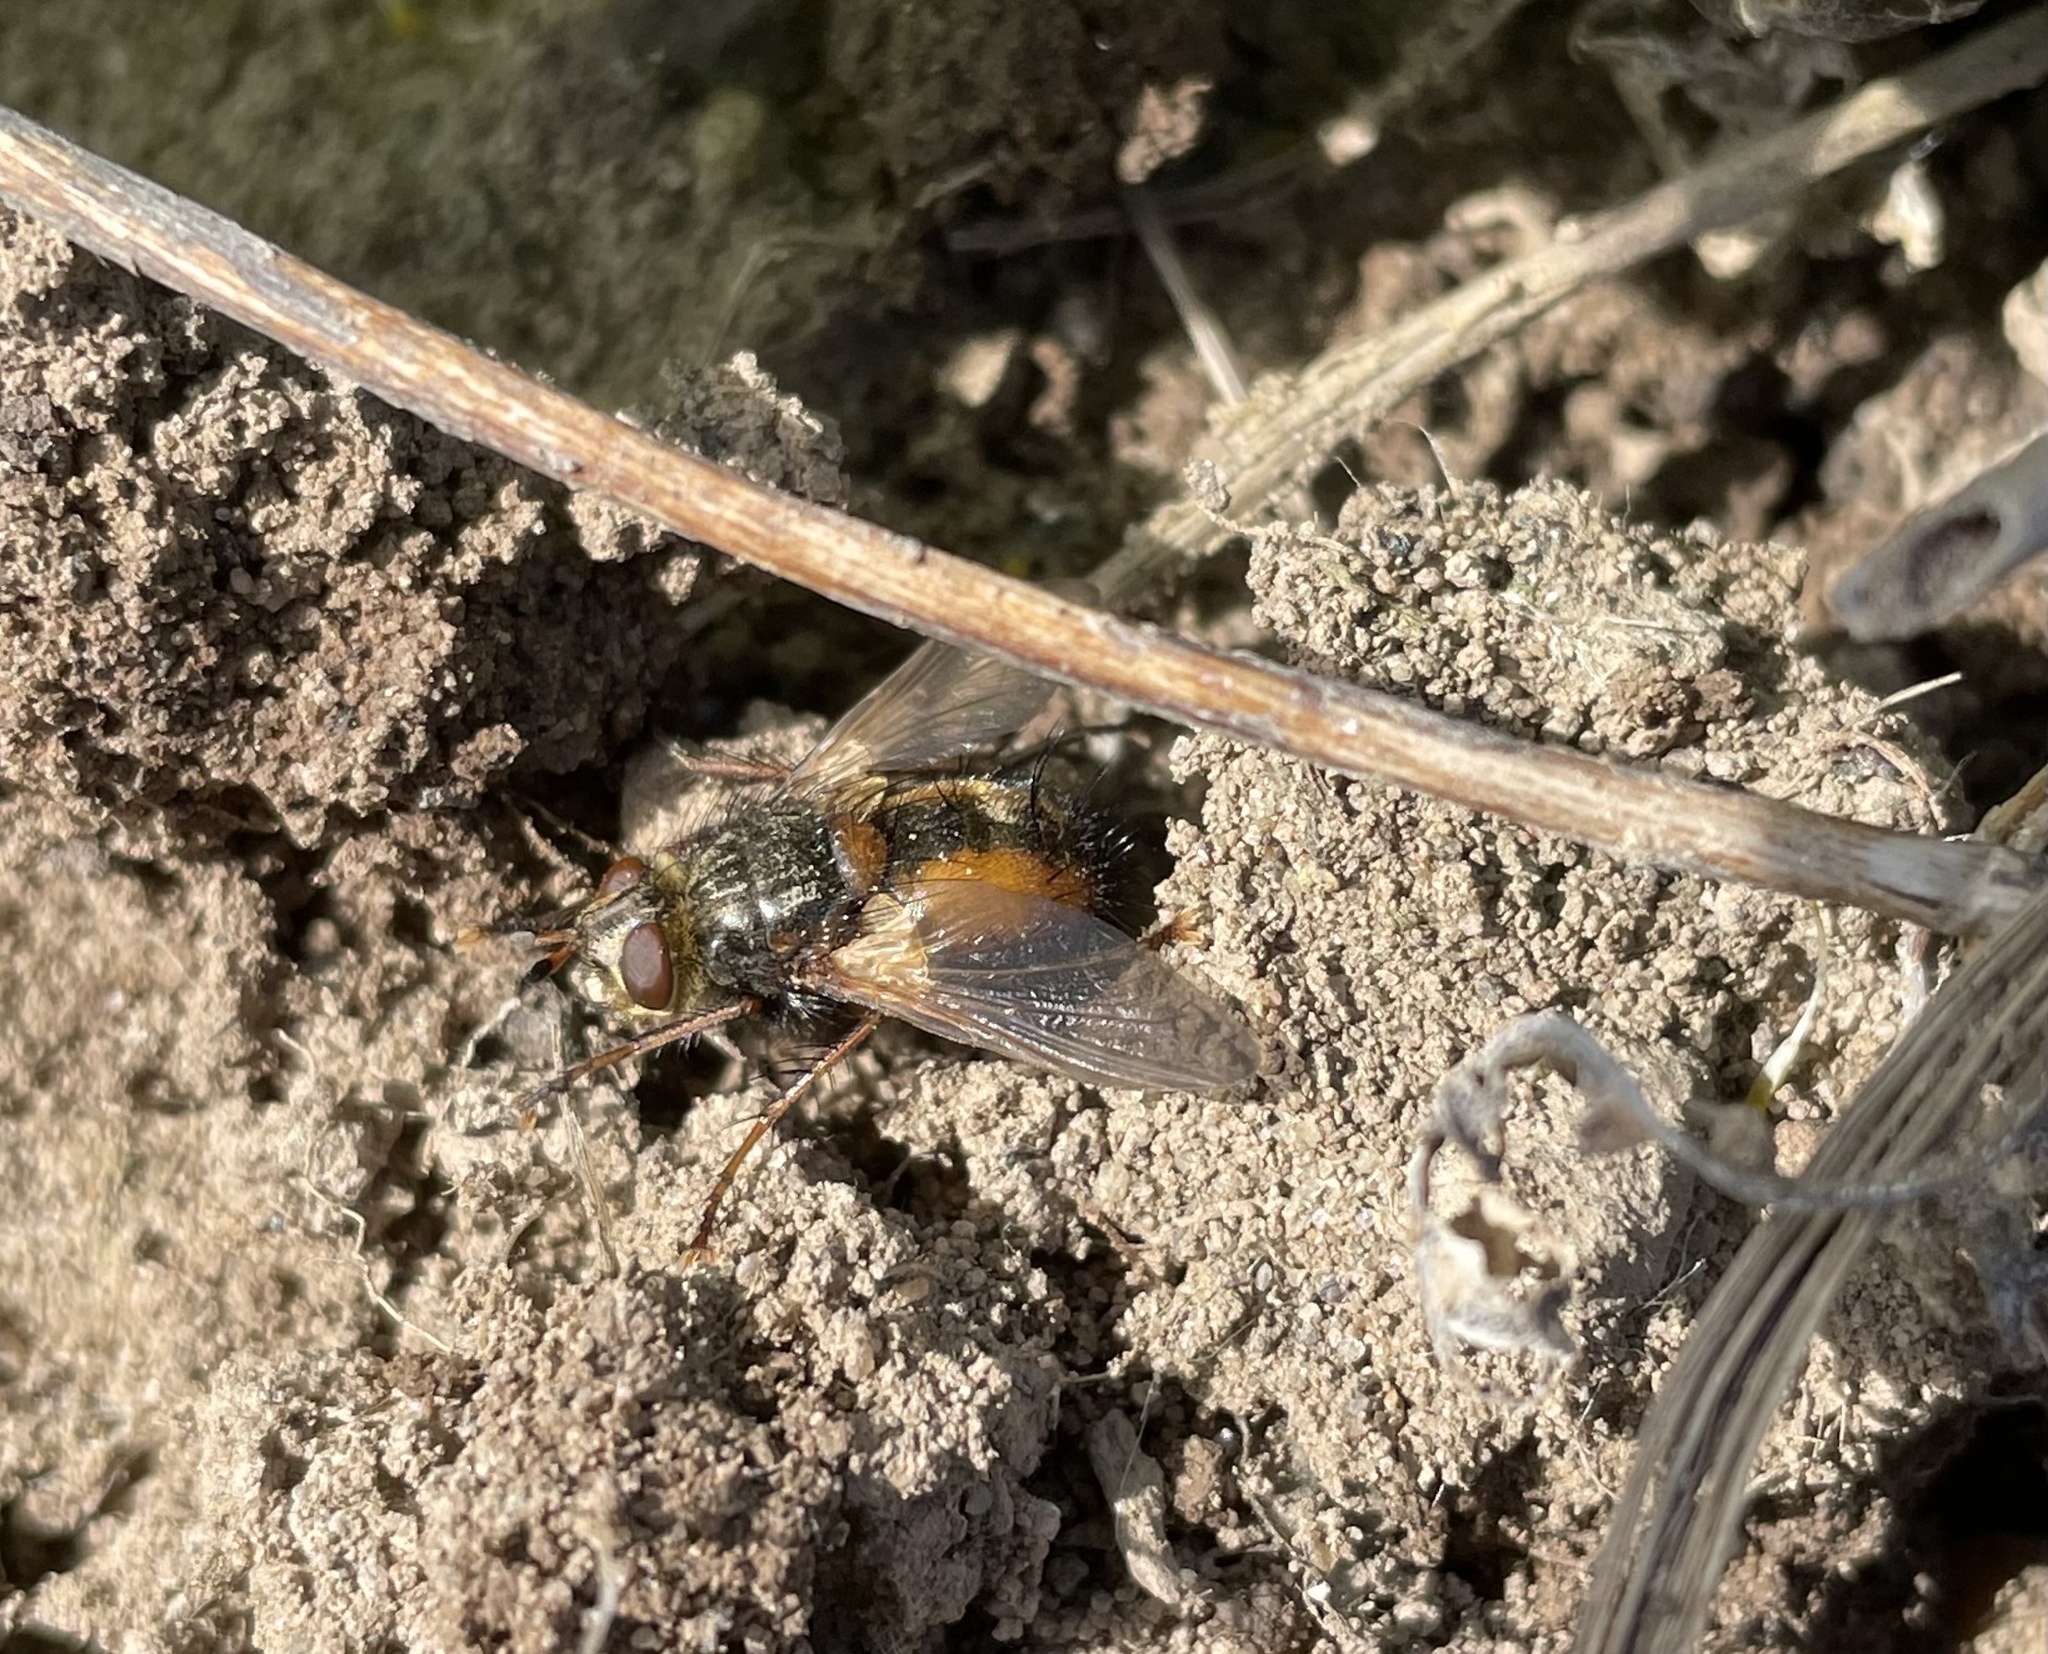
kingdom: Animalia
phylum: Arthropoda
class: Insecta
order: Diptera
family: Tachinidae
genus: Tachina
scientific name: Tachina fera
